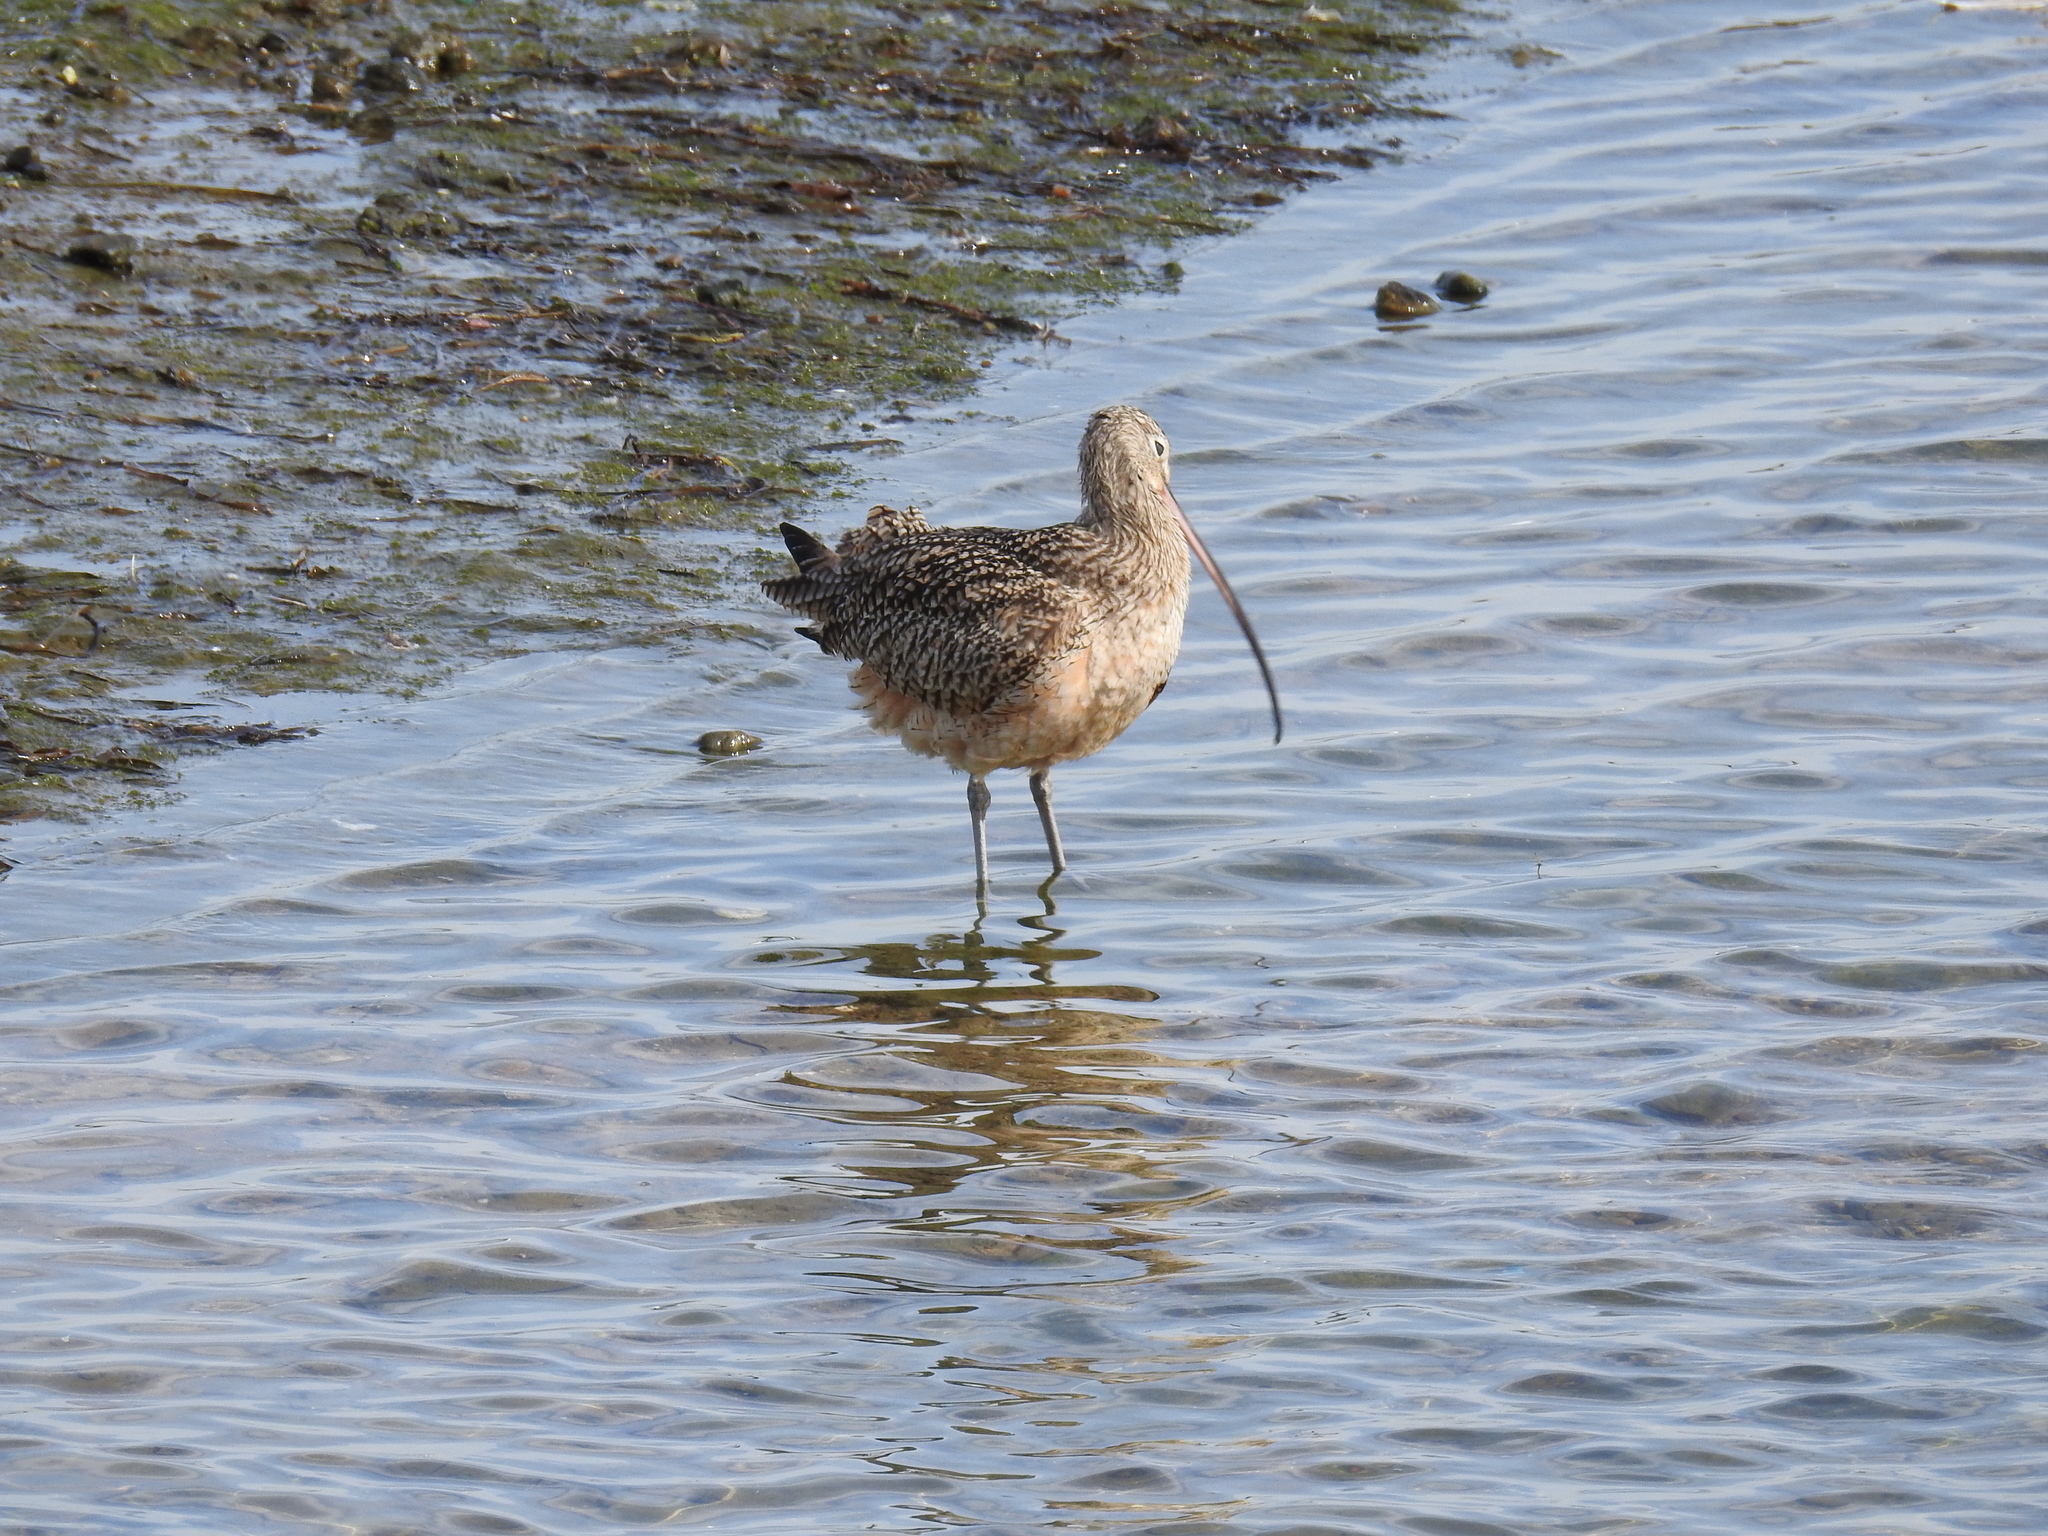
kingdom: Animalia
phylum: Chordata
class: Aves
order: Charadriiformes
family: Scolopacidae
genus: Numenius
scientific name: Numenius americanus
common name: Long-billed curlew
